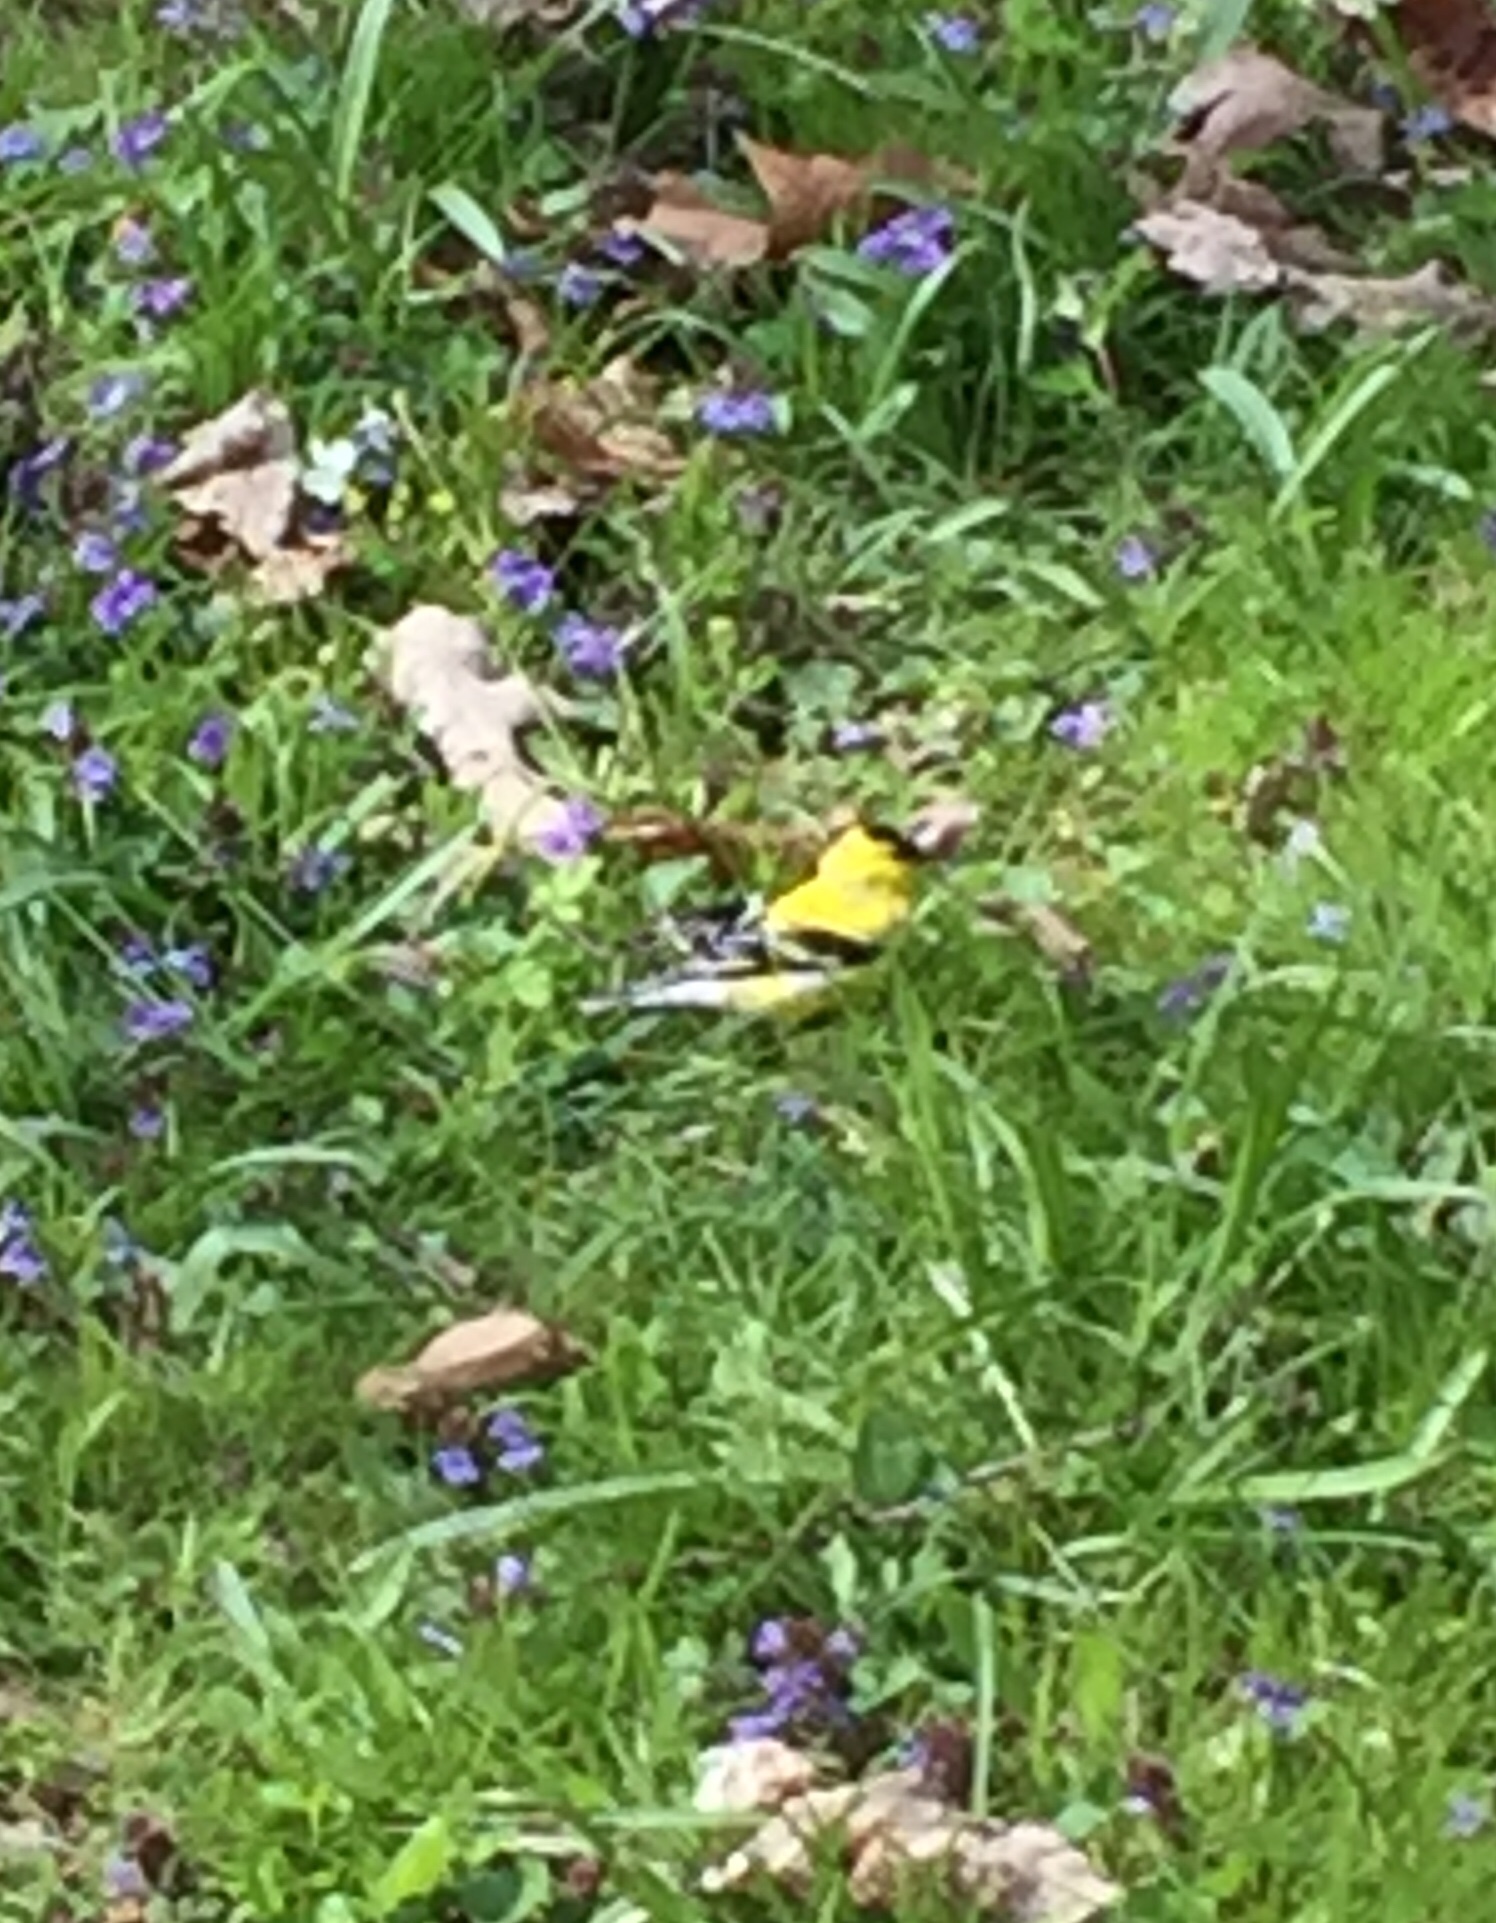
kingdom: Animalia
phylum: Chordata
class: Aves
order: Passeriformes
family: Fringillidae
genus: Spinus
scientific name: Spinus tristis
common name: American goldfinch
